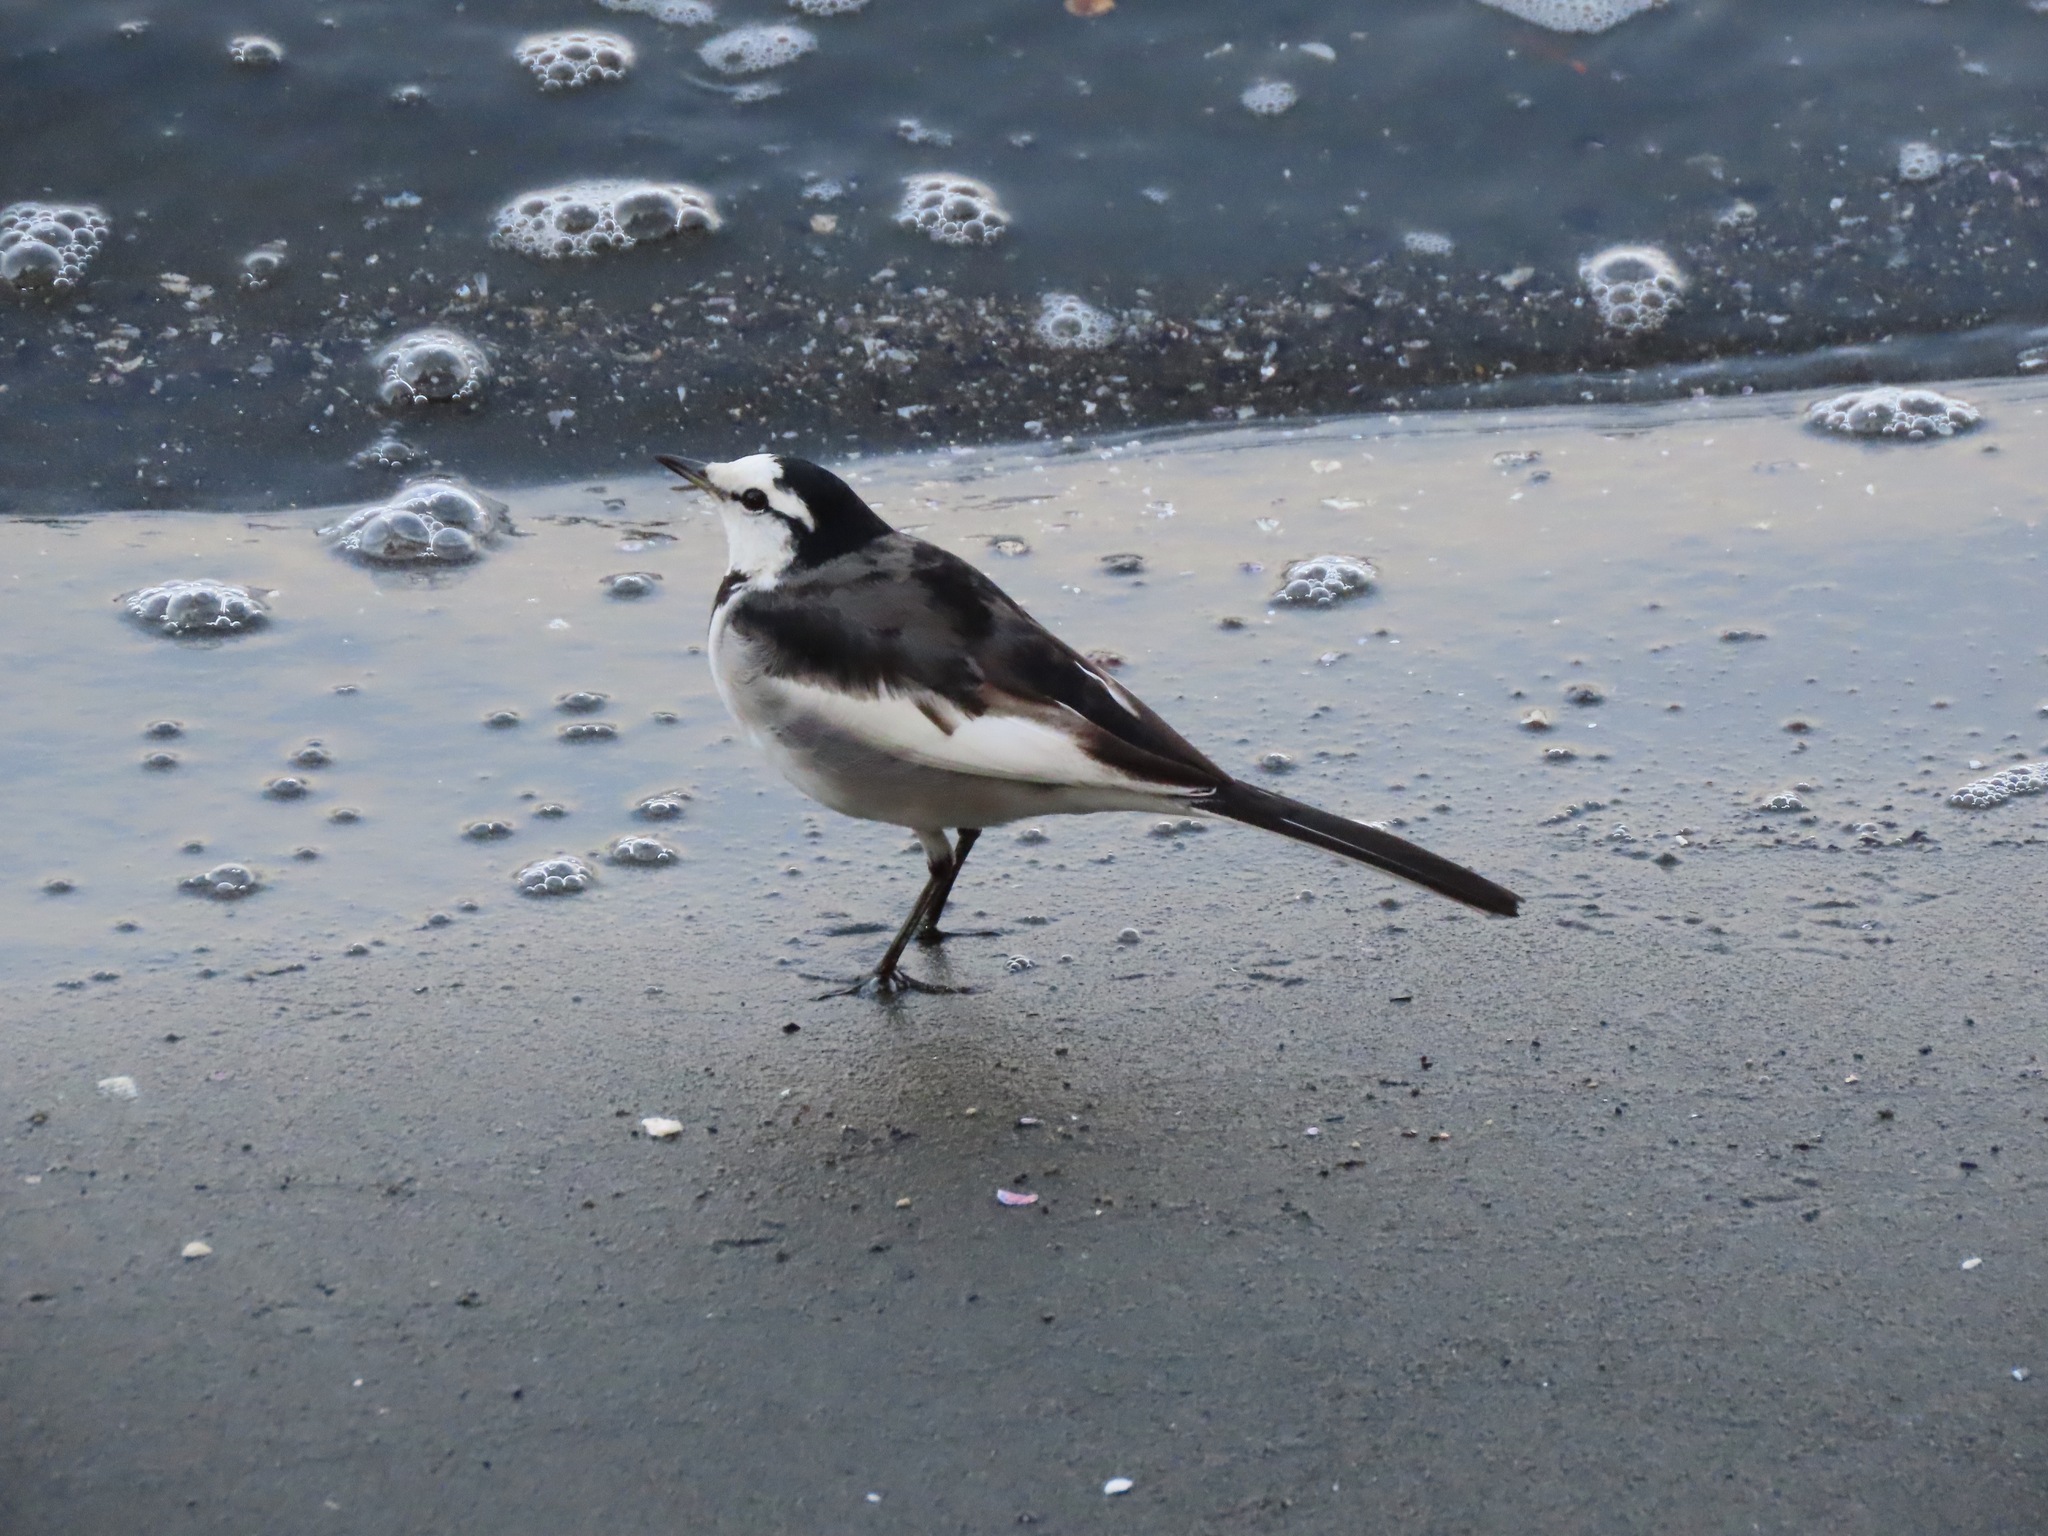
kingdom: Animalia
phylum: Chordata
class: Aves
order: Passeriformes
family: Motacillidae
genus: Motacilla
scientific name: Motacilla alba
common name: White wagtail
